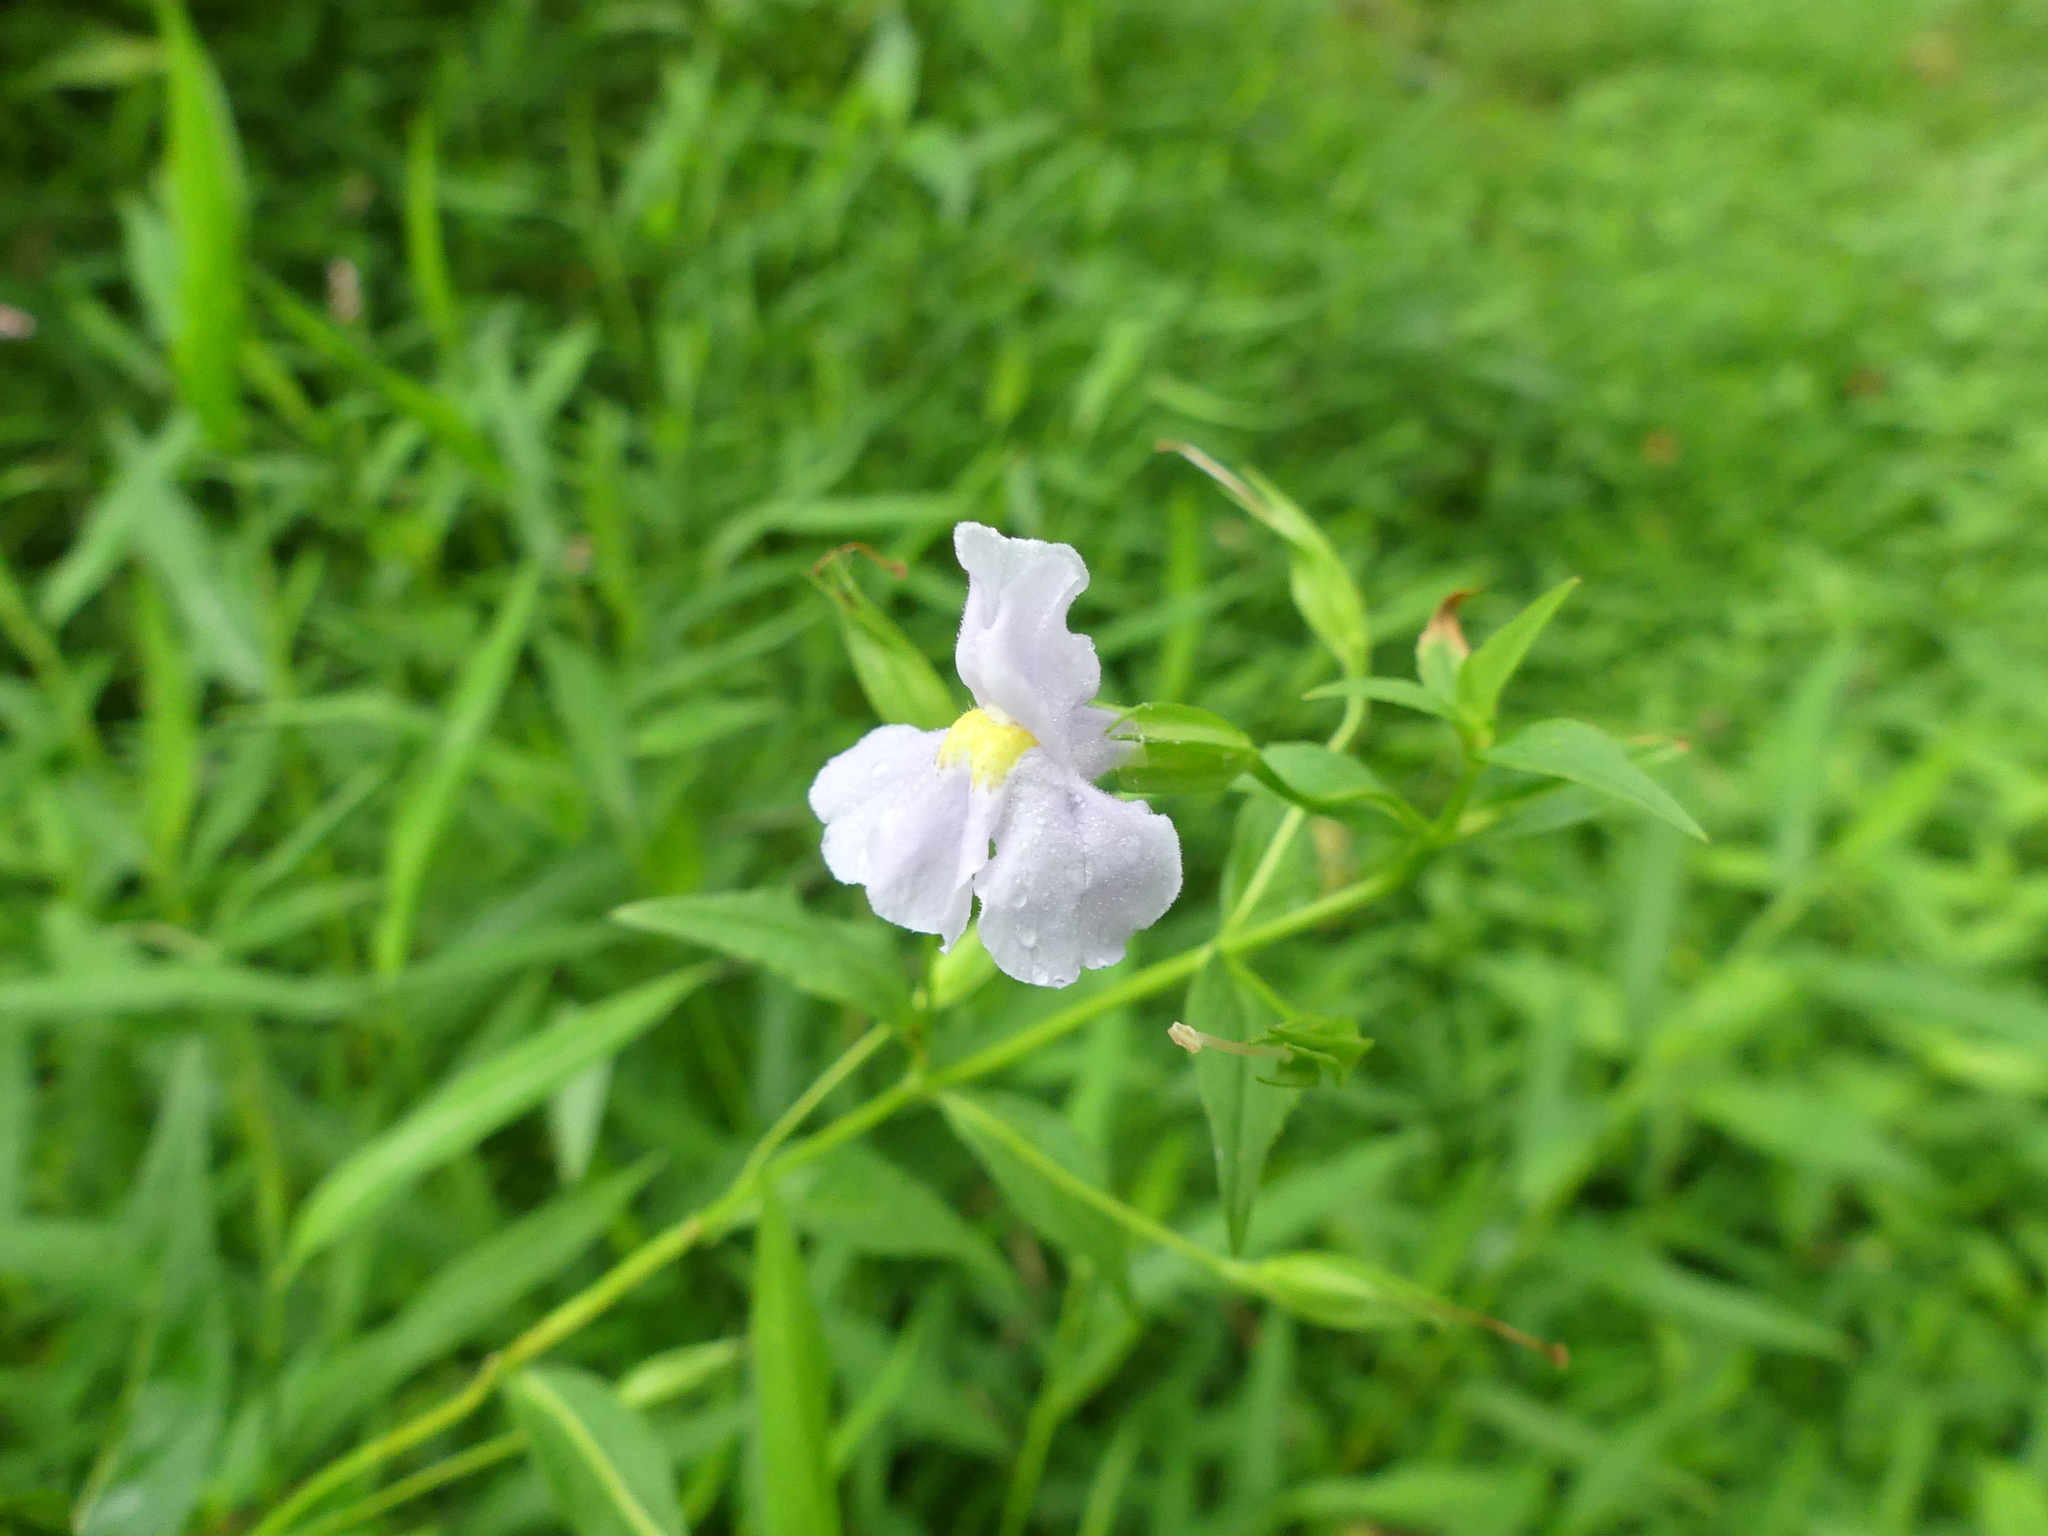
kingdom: Plantae
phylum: Tracheophyta
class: Magnoliopsida
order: Lamiales
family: Phrymaceae
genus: Mimulus
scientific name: Mimulus ringens
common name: Allegheny monkeyflower
